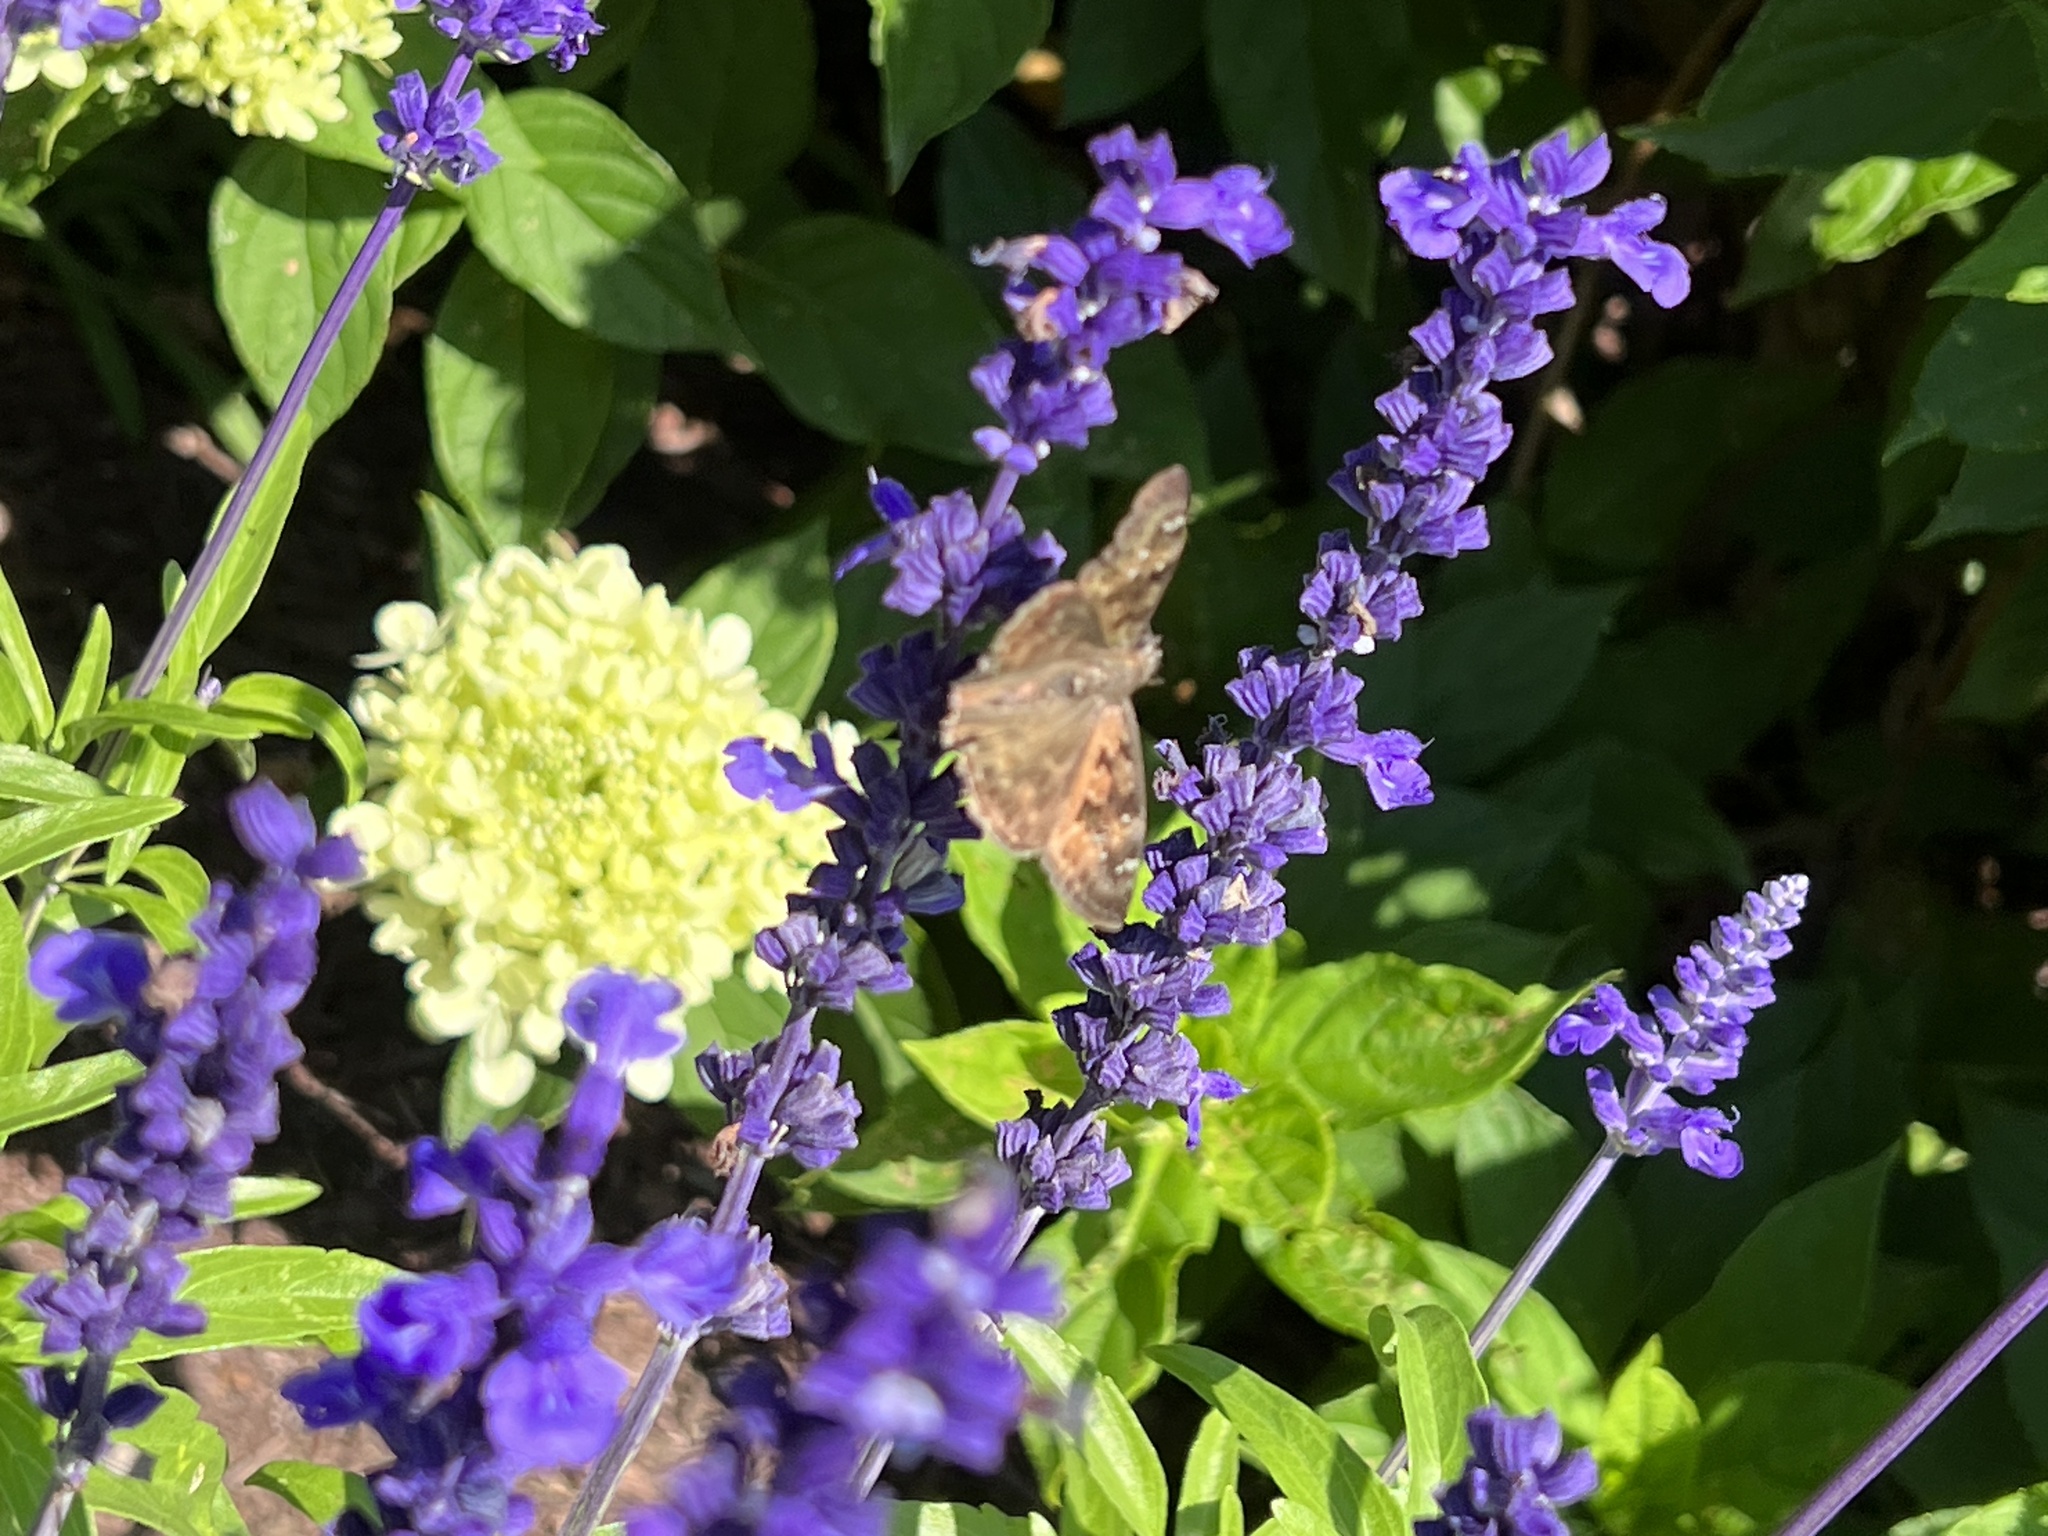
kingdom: Animalia
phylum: Arthropoda
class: Insecta
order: Lepidoptera
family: Hesperiidae
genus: Erynnis
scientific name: Erynnis horatius
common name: Horace's duskywing
